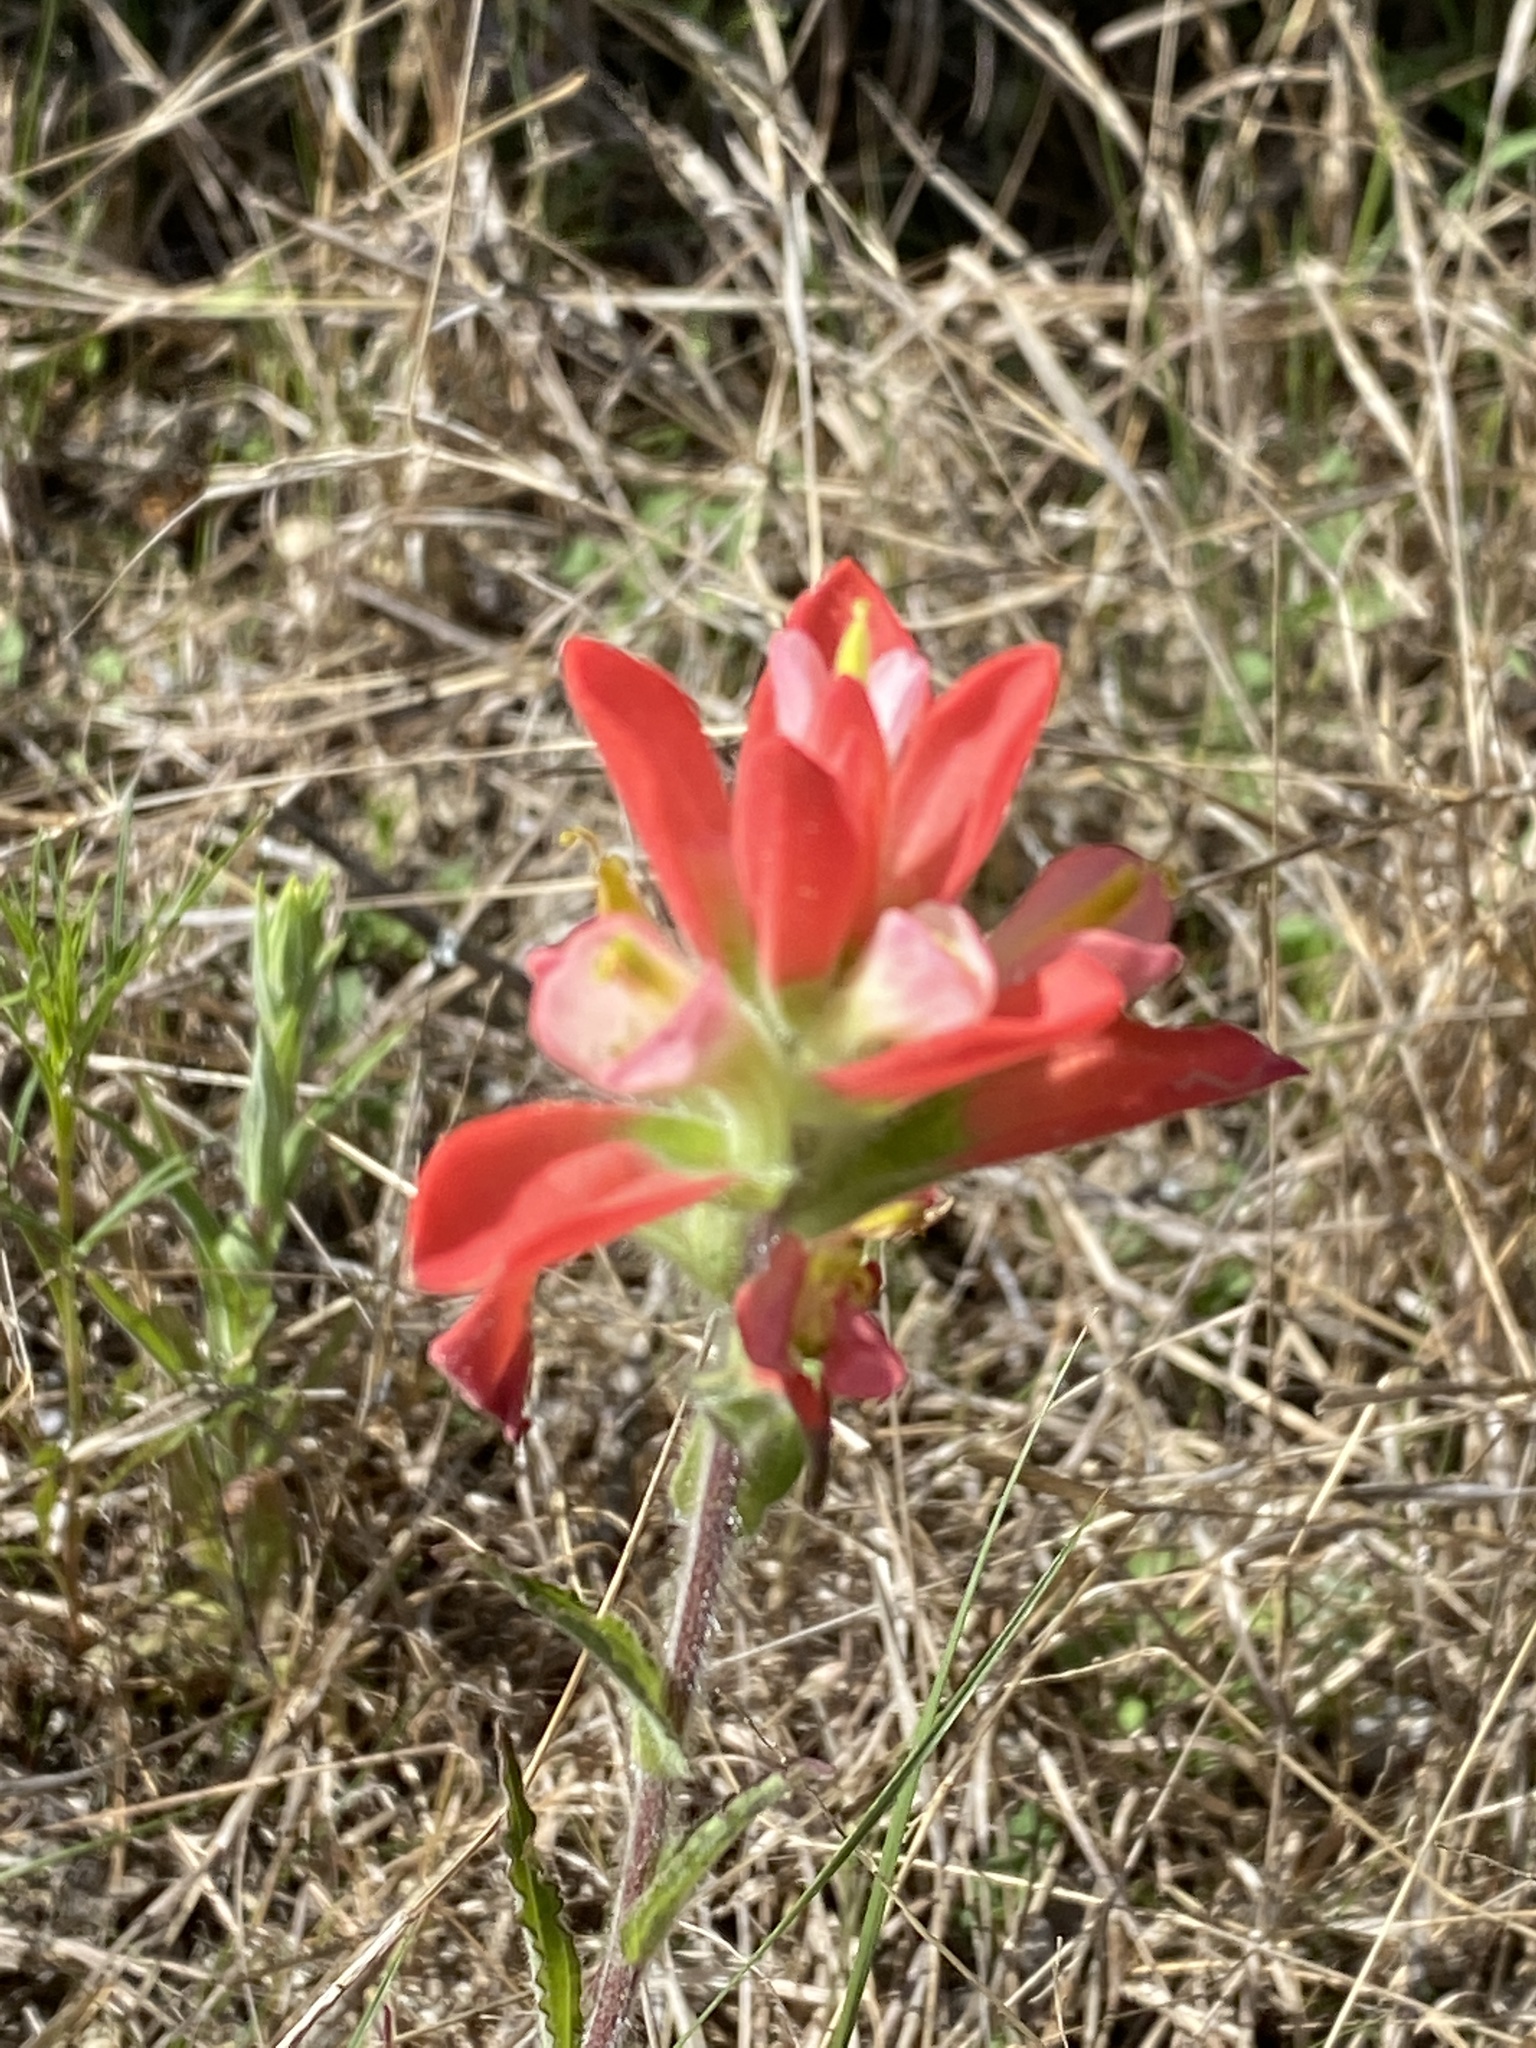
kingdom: Plantae
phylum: Tracheophyta
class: Magnoliopsida
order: Lamiales
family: Orobanchaceae
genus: Castilleja
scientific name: Castilleja indivisa
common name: Texas paintbrush
